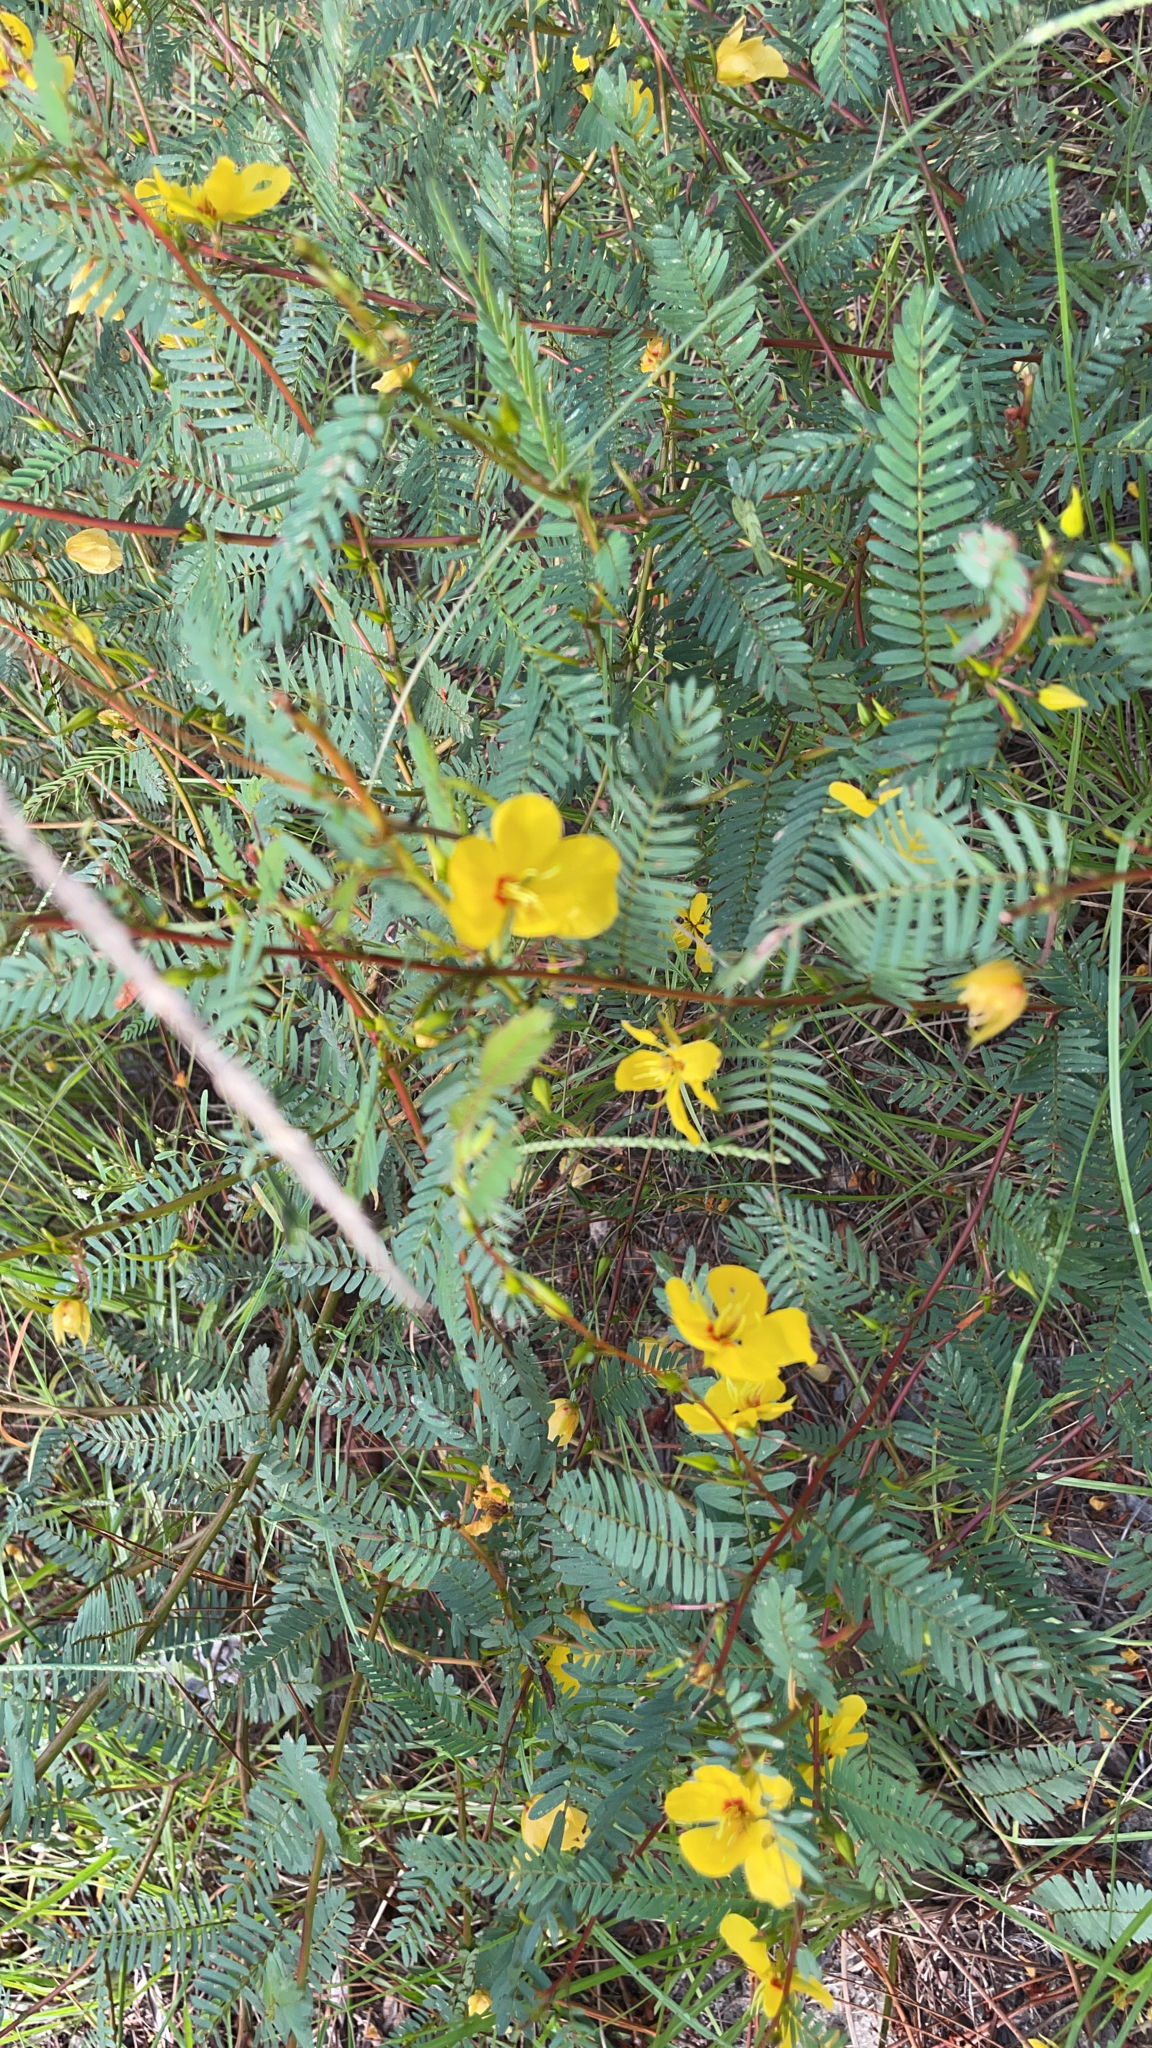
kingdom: Plantae
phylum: Tracheophyta
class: Magnoliopsida
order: Fabales
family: Fabaceae
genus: Chamaecrista
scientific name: Chamaecrista fasciculata
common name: Golden cassia
